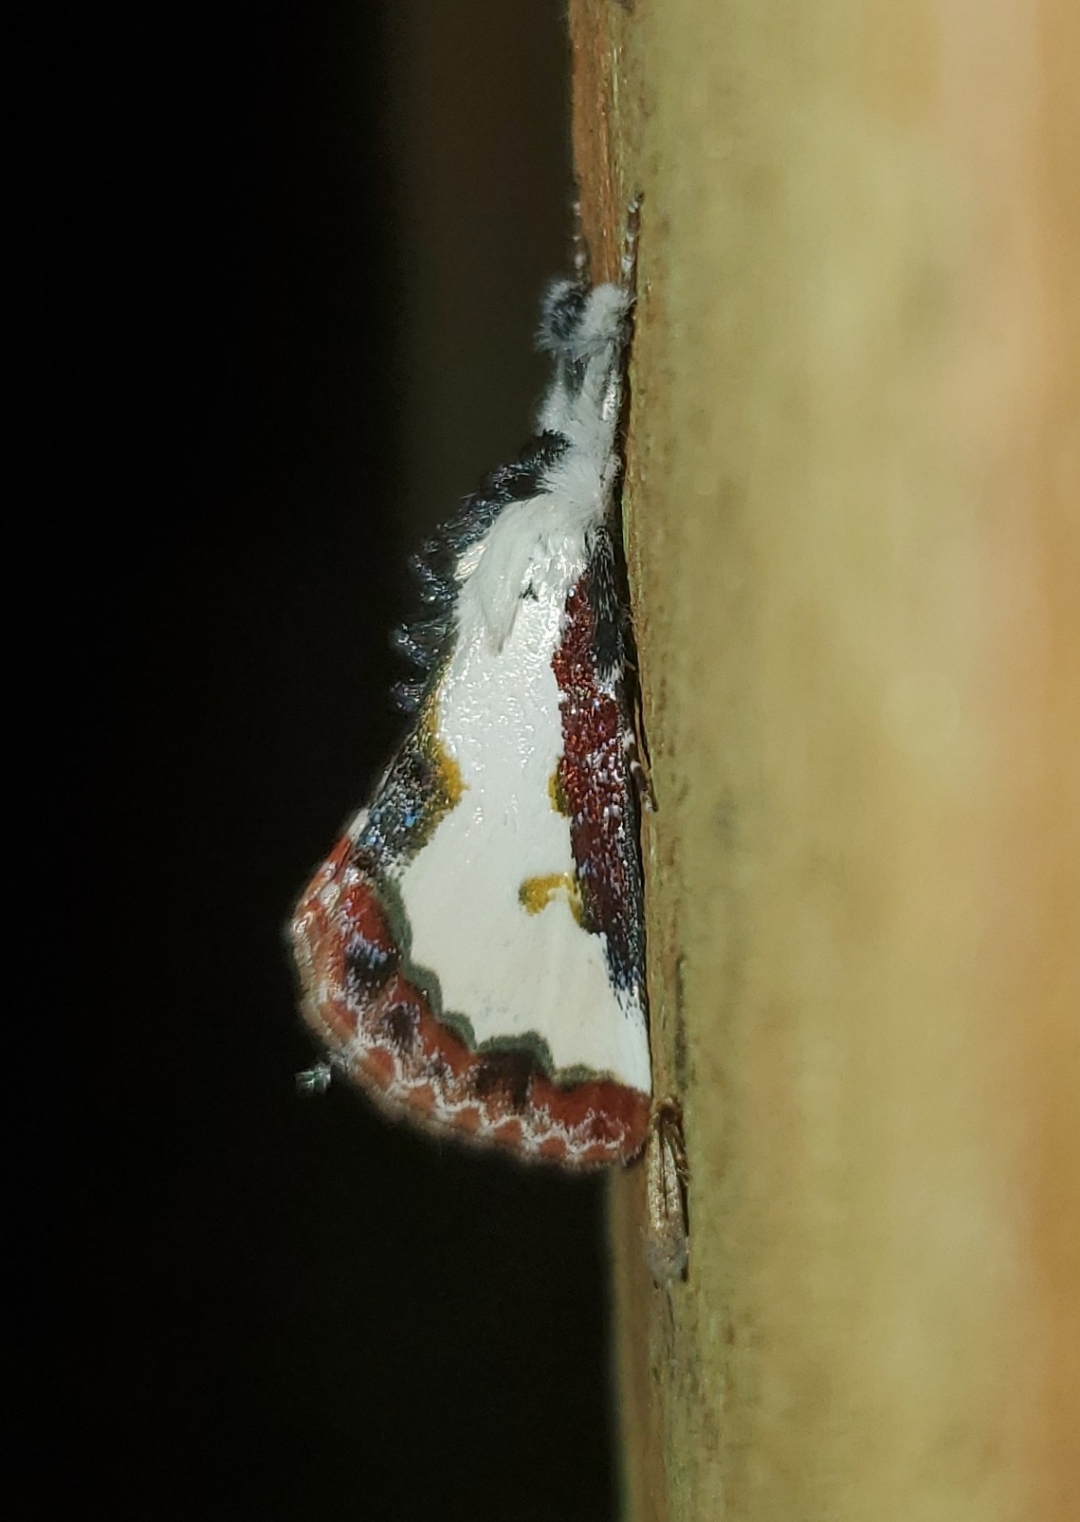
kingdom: Animalia
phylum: Arthropoda
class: Insecta
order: Lepidoptera
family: Noctuidae
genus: Eudryas
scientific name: Eudryas unio
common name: Pearly wood-nymph
